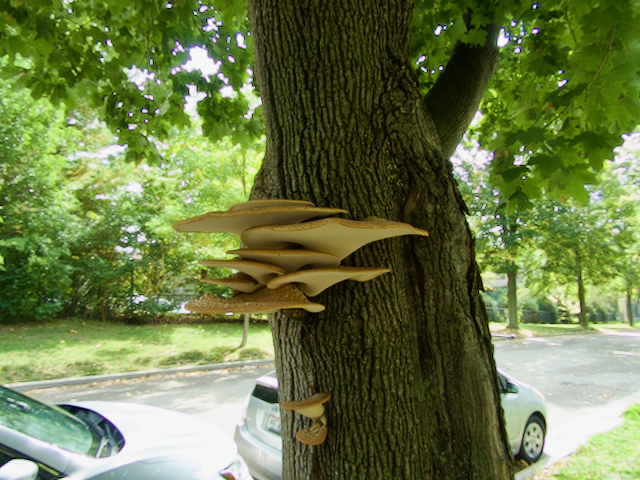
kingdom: Fungi
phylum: Basidiomycota
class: Agaricomycetes
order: Polyporales
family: Polyporaceae
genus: Cerioporus
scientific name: Cerioporus squamosus
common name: Dryad's saddle
